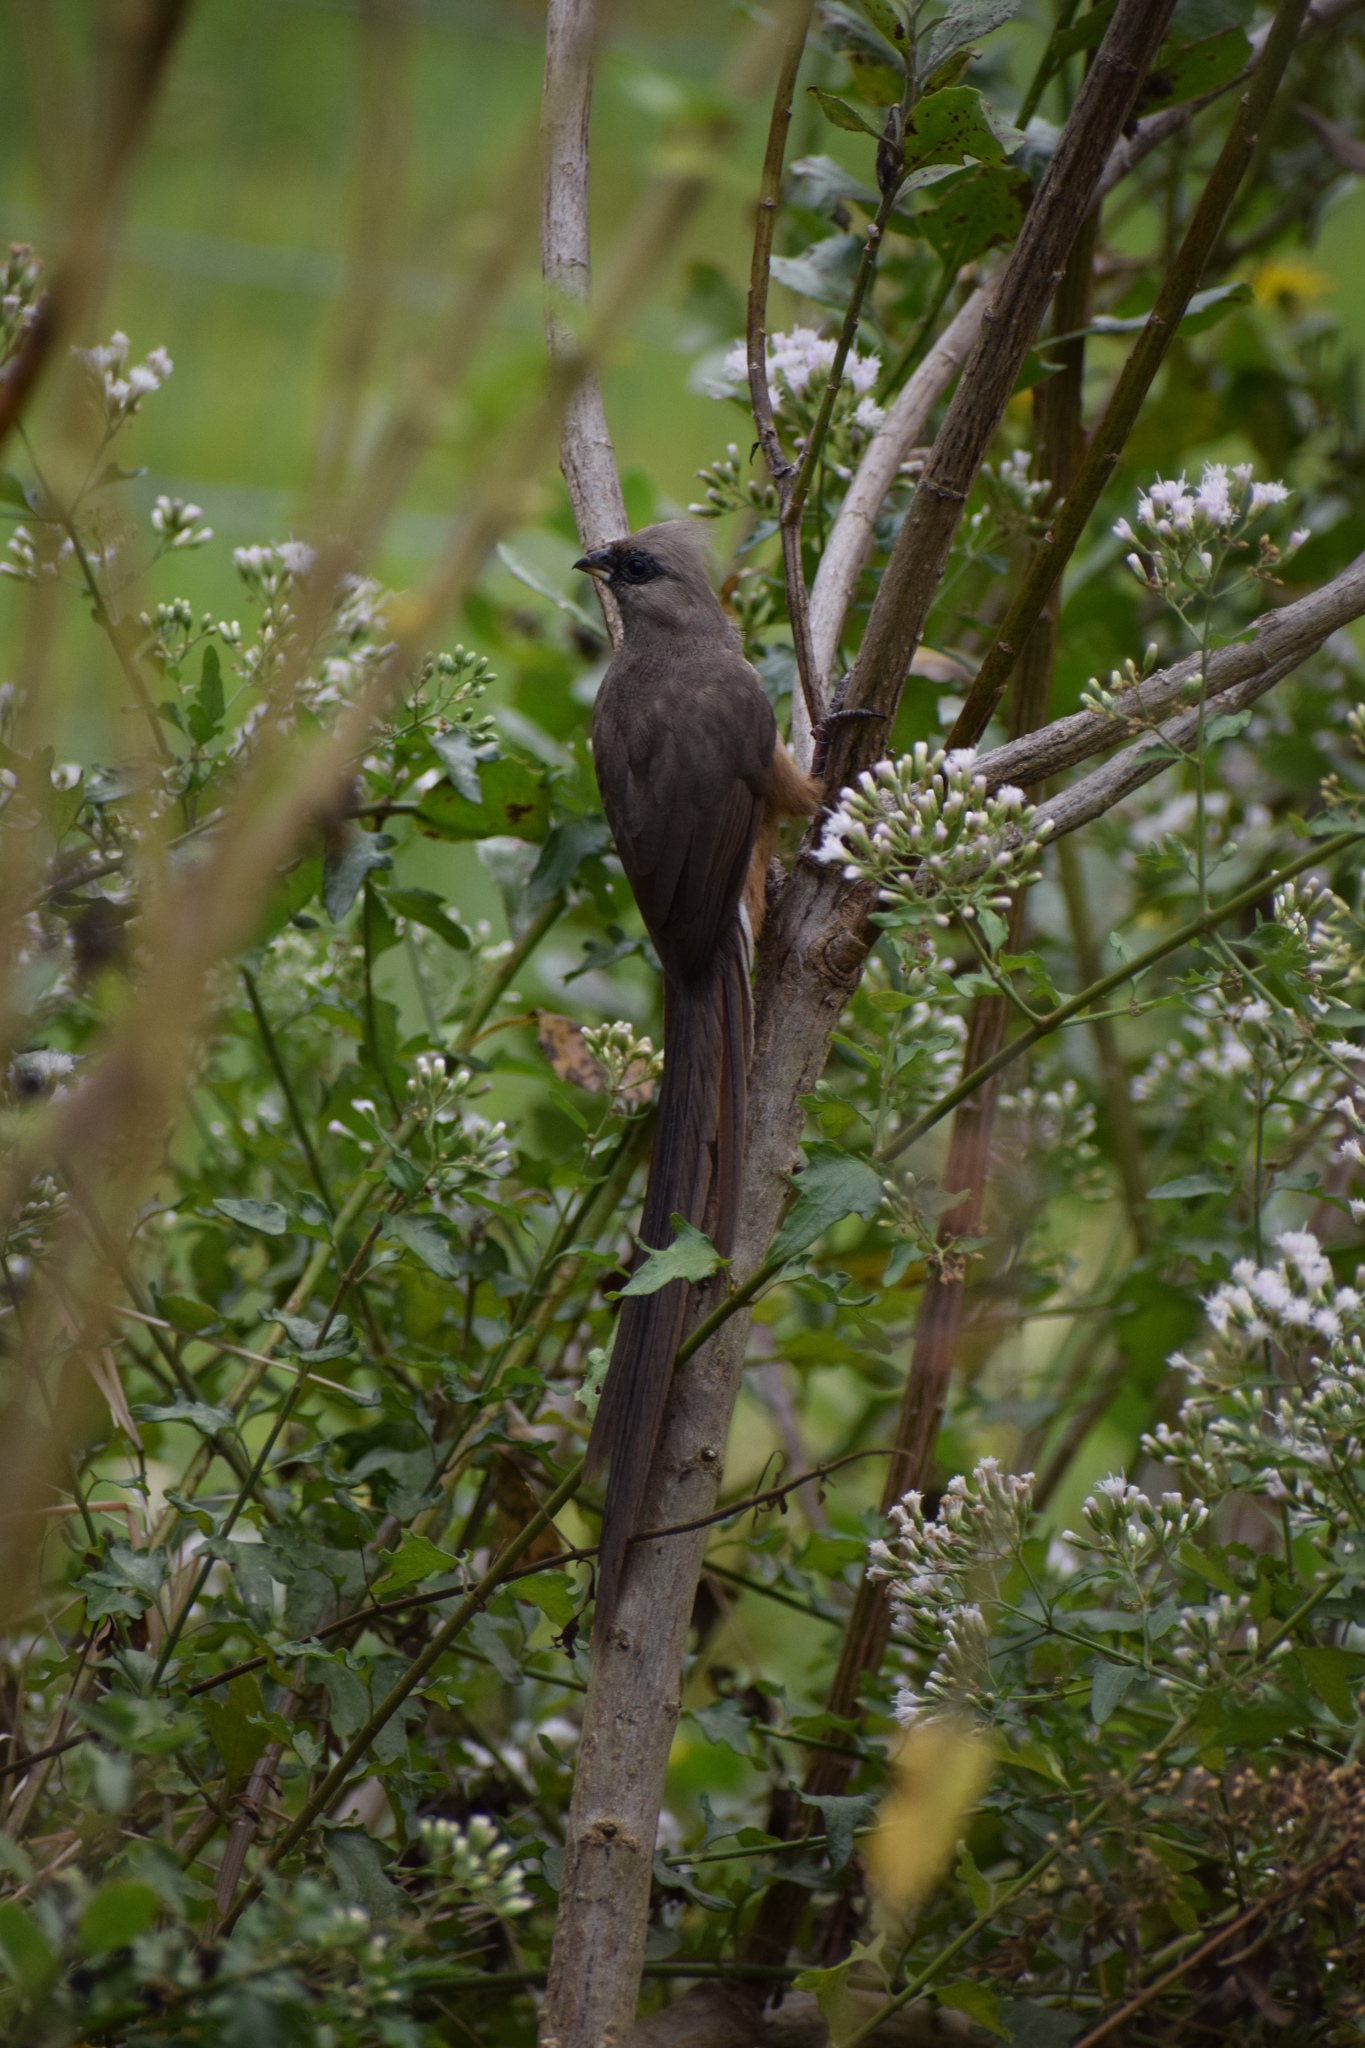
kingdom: Animalia
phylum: Chordata
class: Aves
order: Coliiformes
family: Coliidae
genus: Colius
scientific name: Colius striatus
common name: Speckled mousebird
